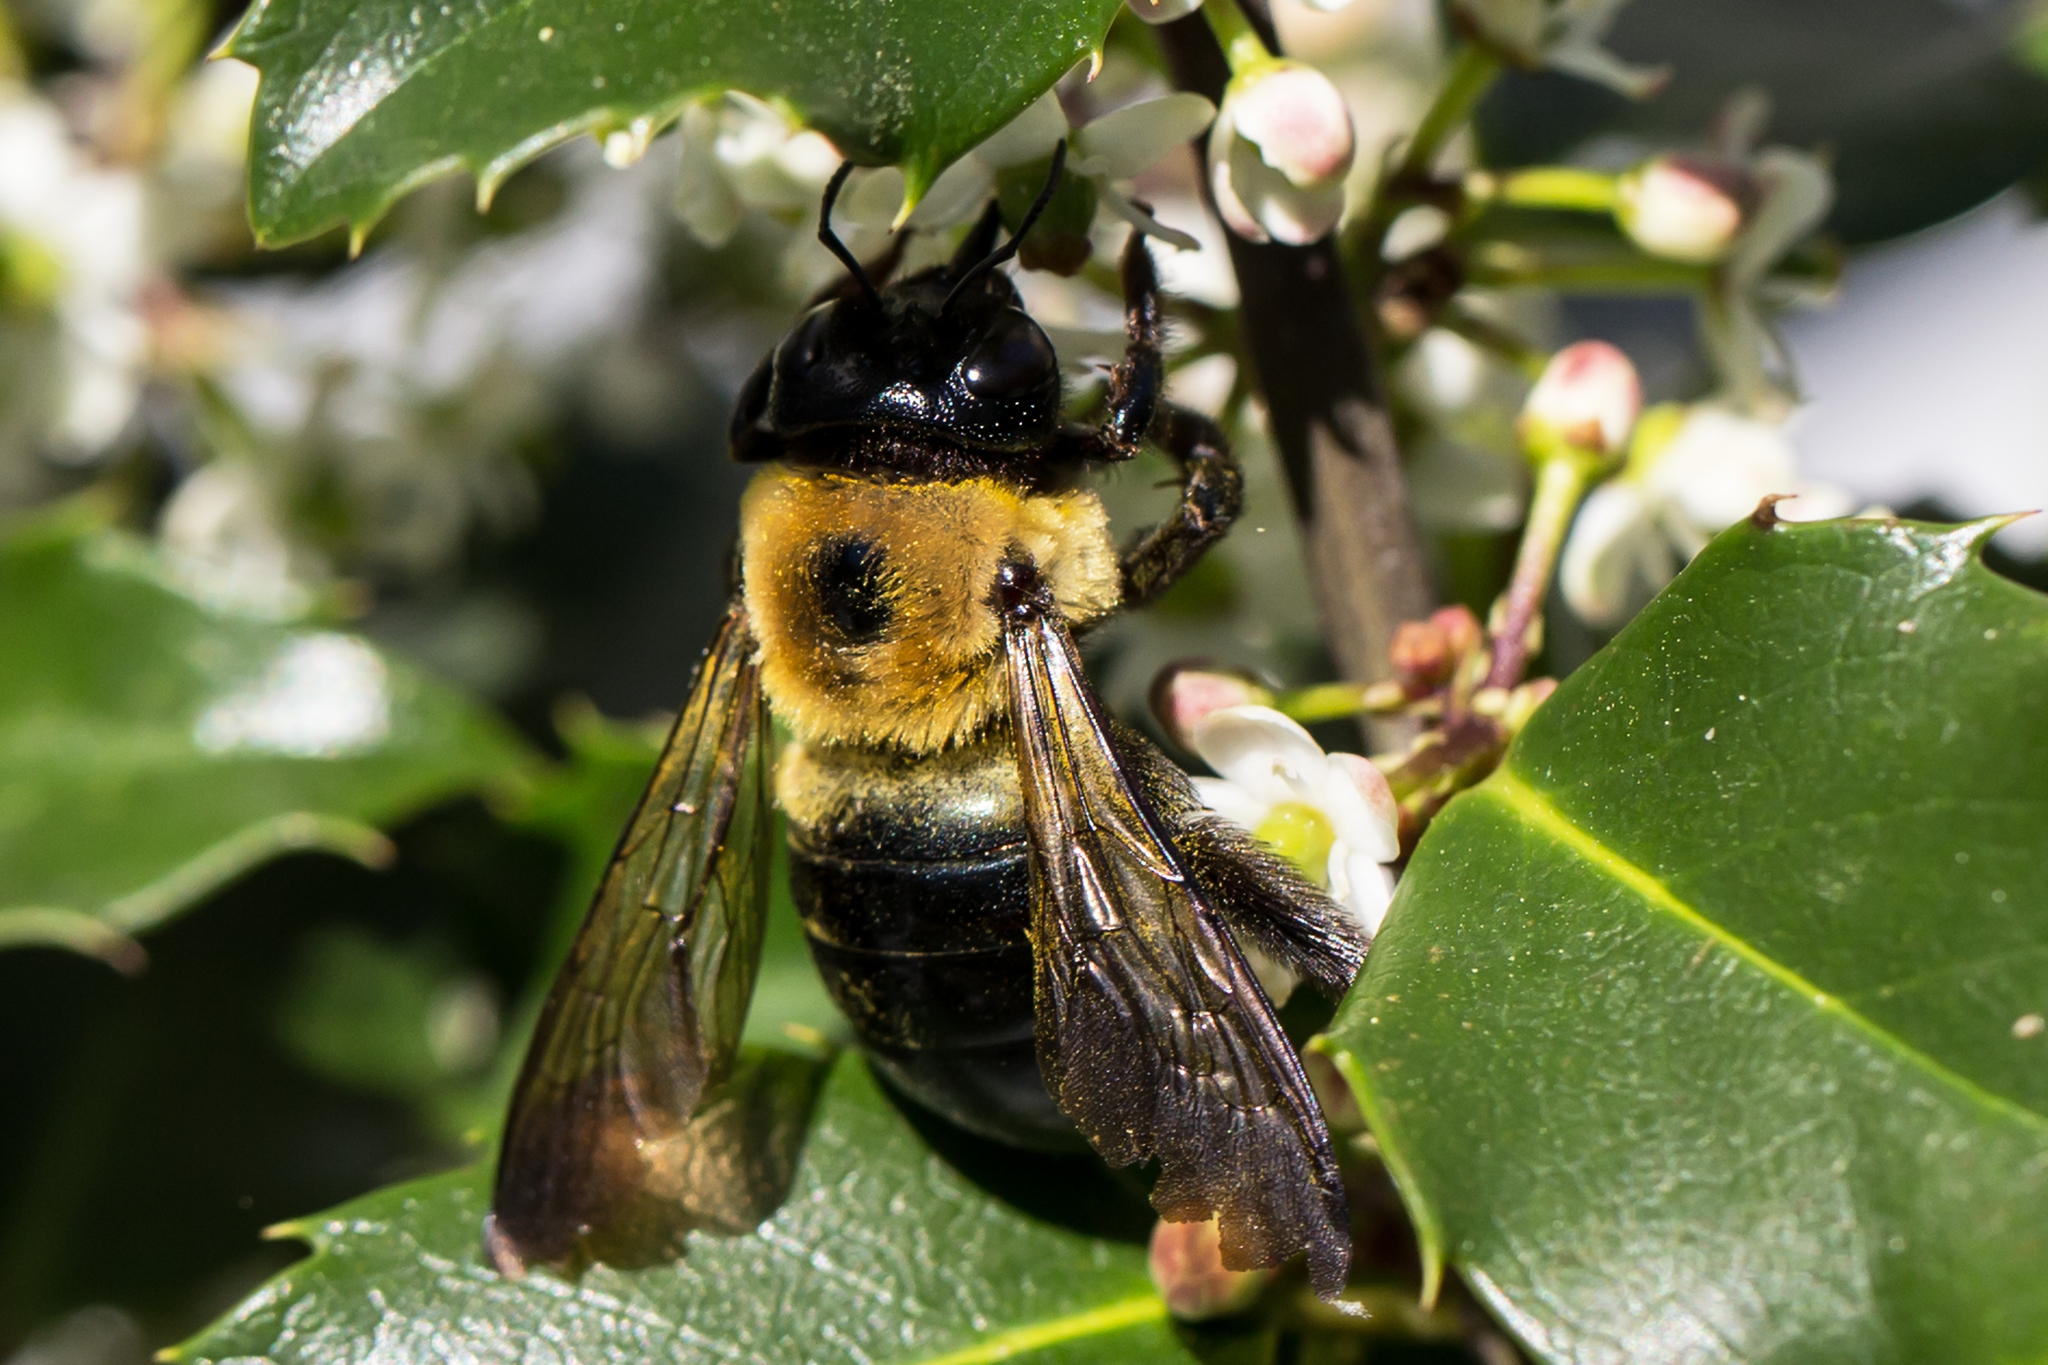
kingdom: Animalia
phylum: Arthropoda
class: Insecta
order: Hymenoptera
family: Apidae
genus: Xylocopa
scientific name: Xylocopa virginica
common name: Carpenter bee
